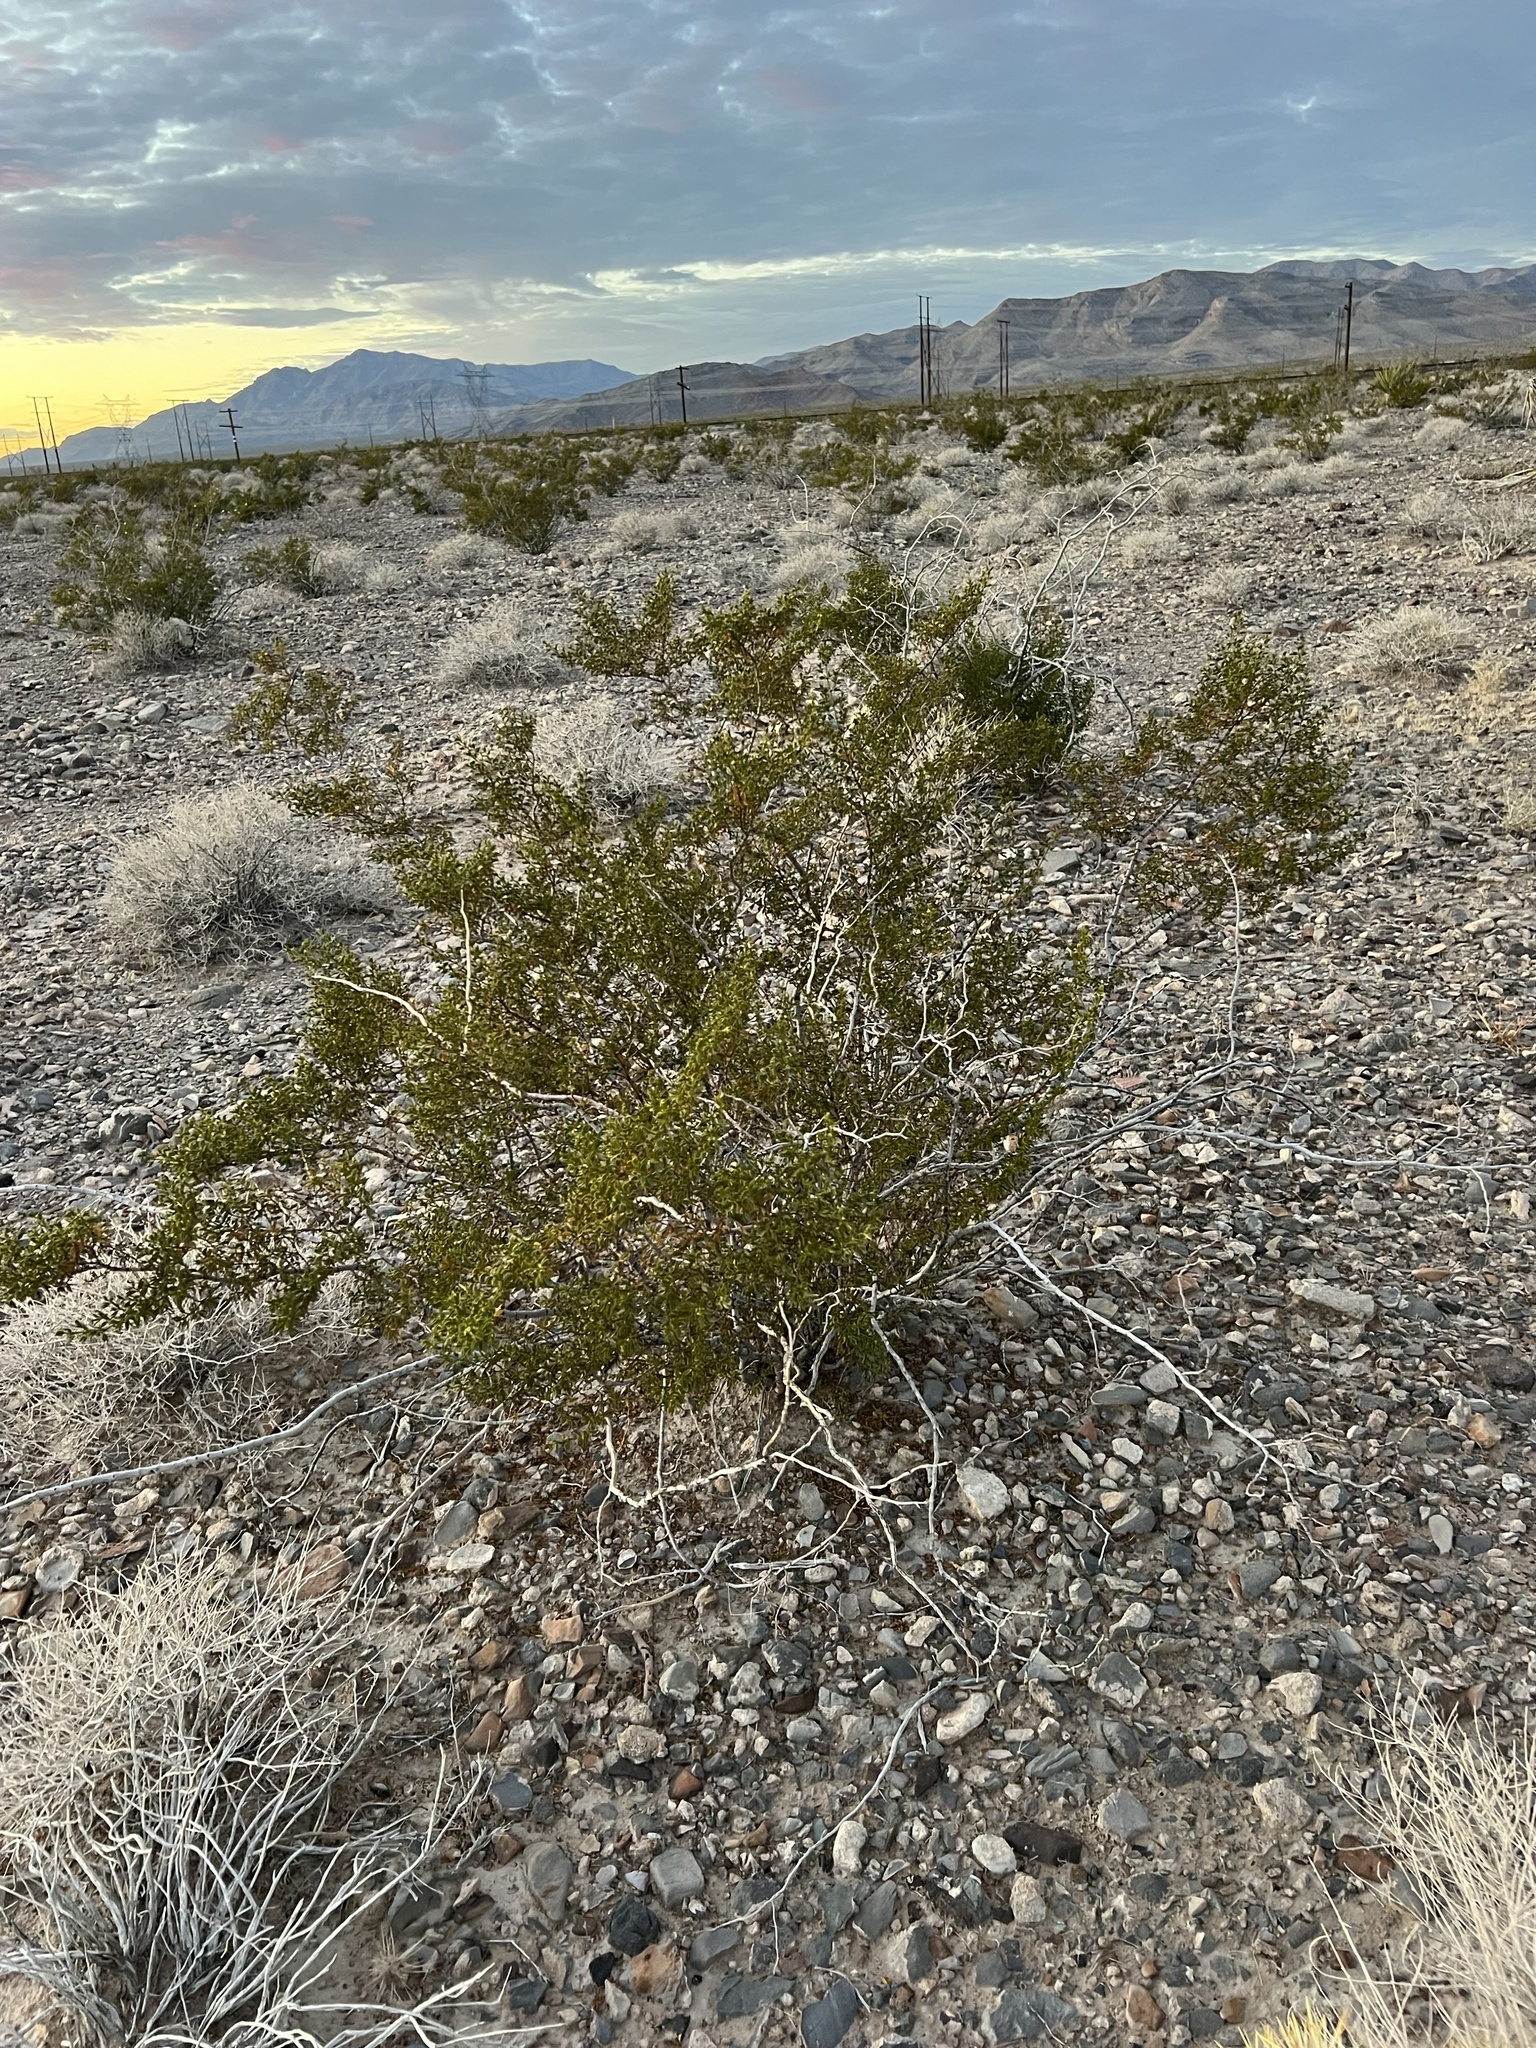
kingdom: Plantae
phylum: Tracheophyta
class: Magnoliopsida
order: Zygophyllales
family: Zygophyllaceae
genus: Larrea
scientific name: Larrea tridentata
